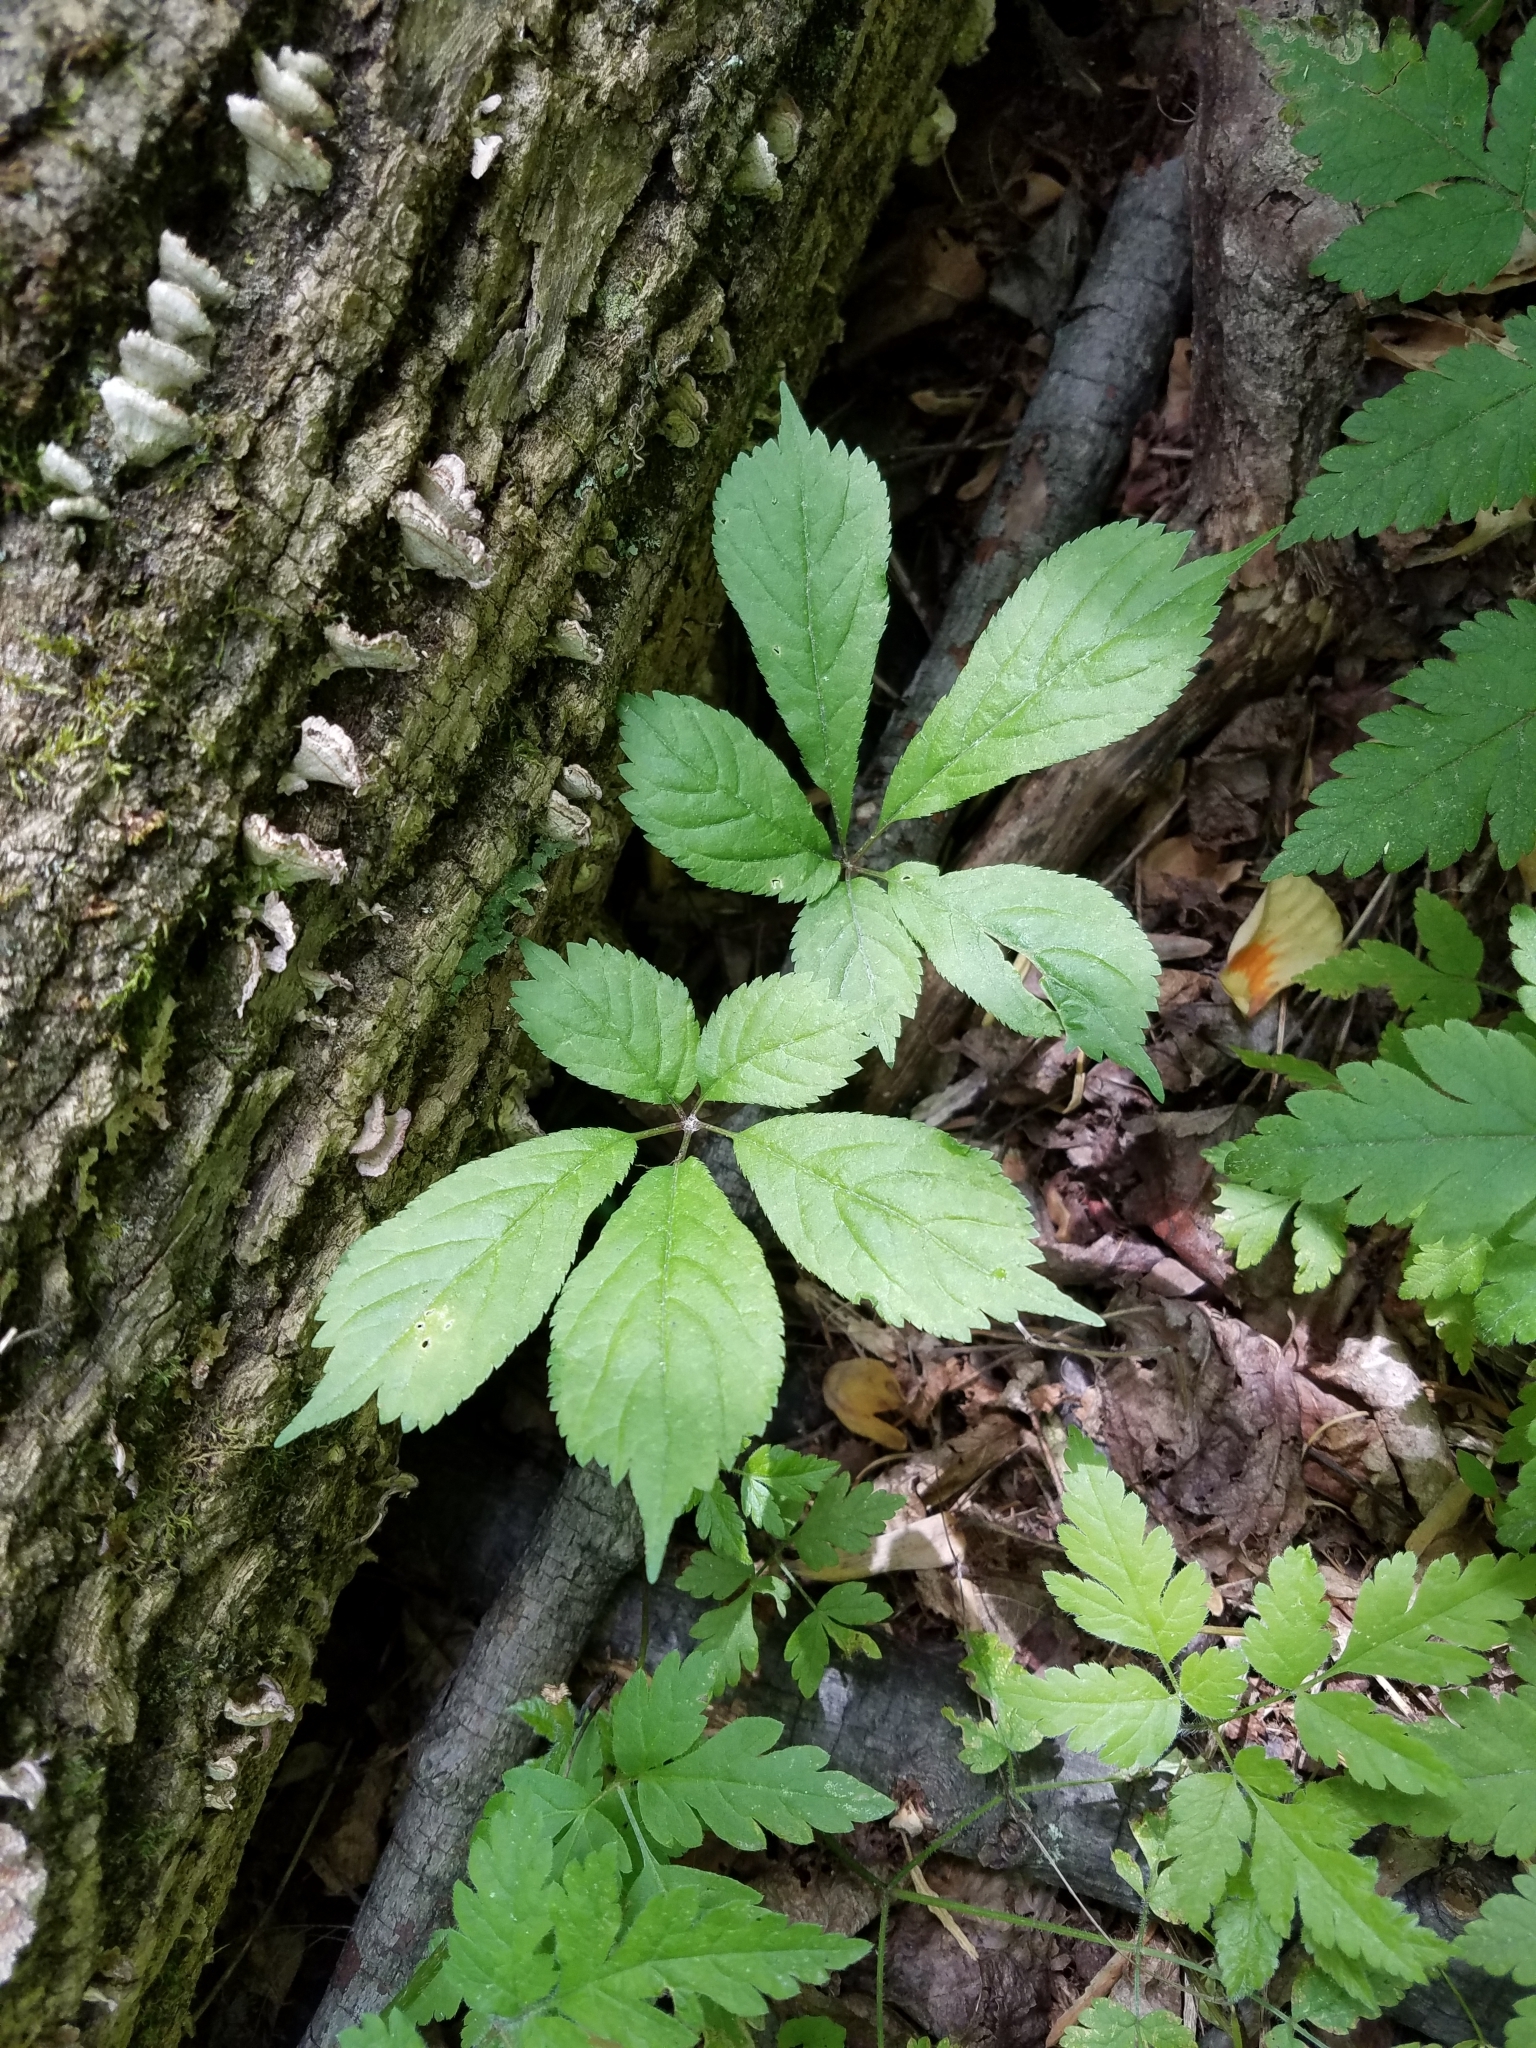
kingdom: Plantae
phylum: Tracheophyta
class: Magnoliopsida
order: Apiales
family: Araliaceae
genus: Panax
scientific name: Panax quinquefolius
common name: American ginseng
